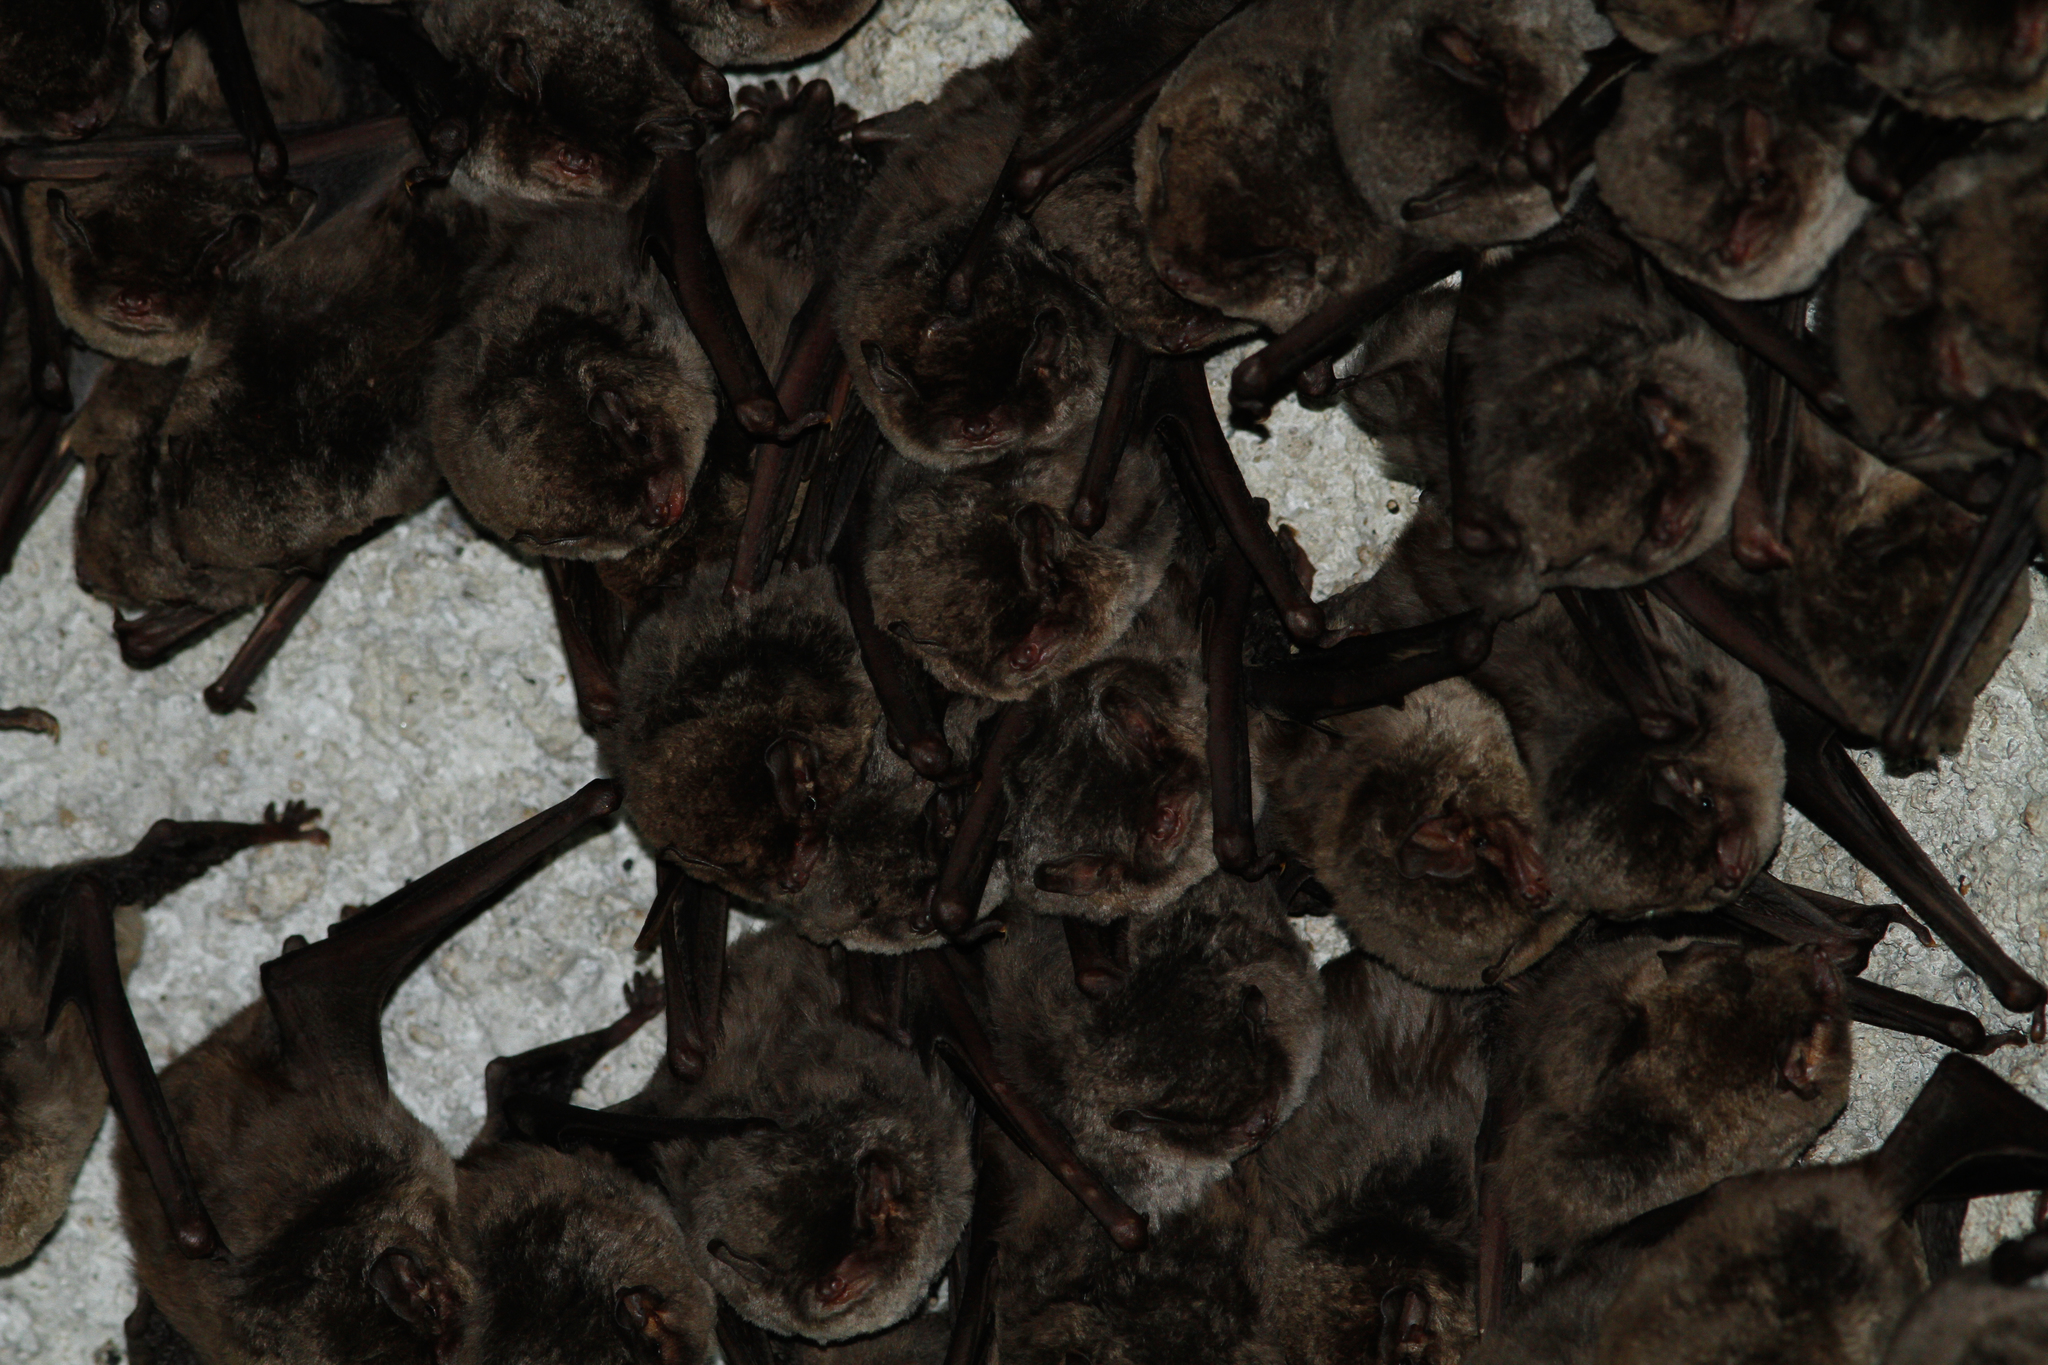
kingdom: Animalia
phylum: Chordata
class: Mammalia
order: Chiroptera
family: Miniopteridae
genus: Miniopterus
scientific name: Miniopterus schreibersii
